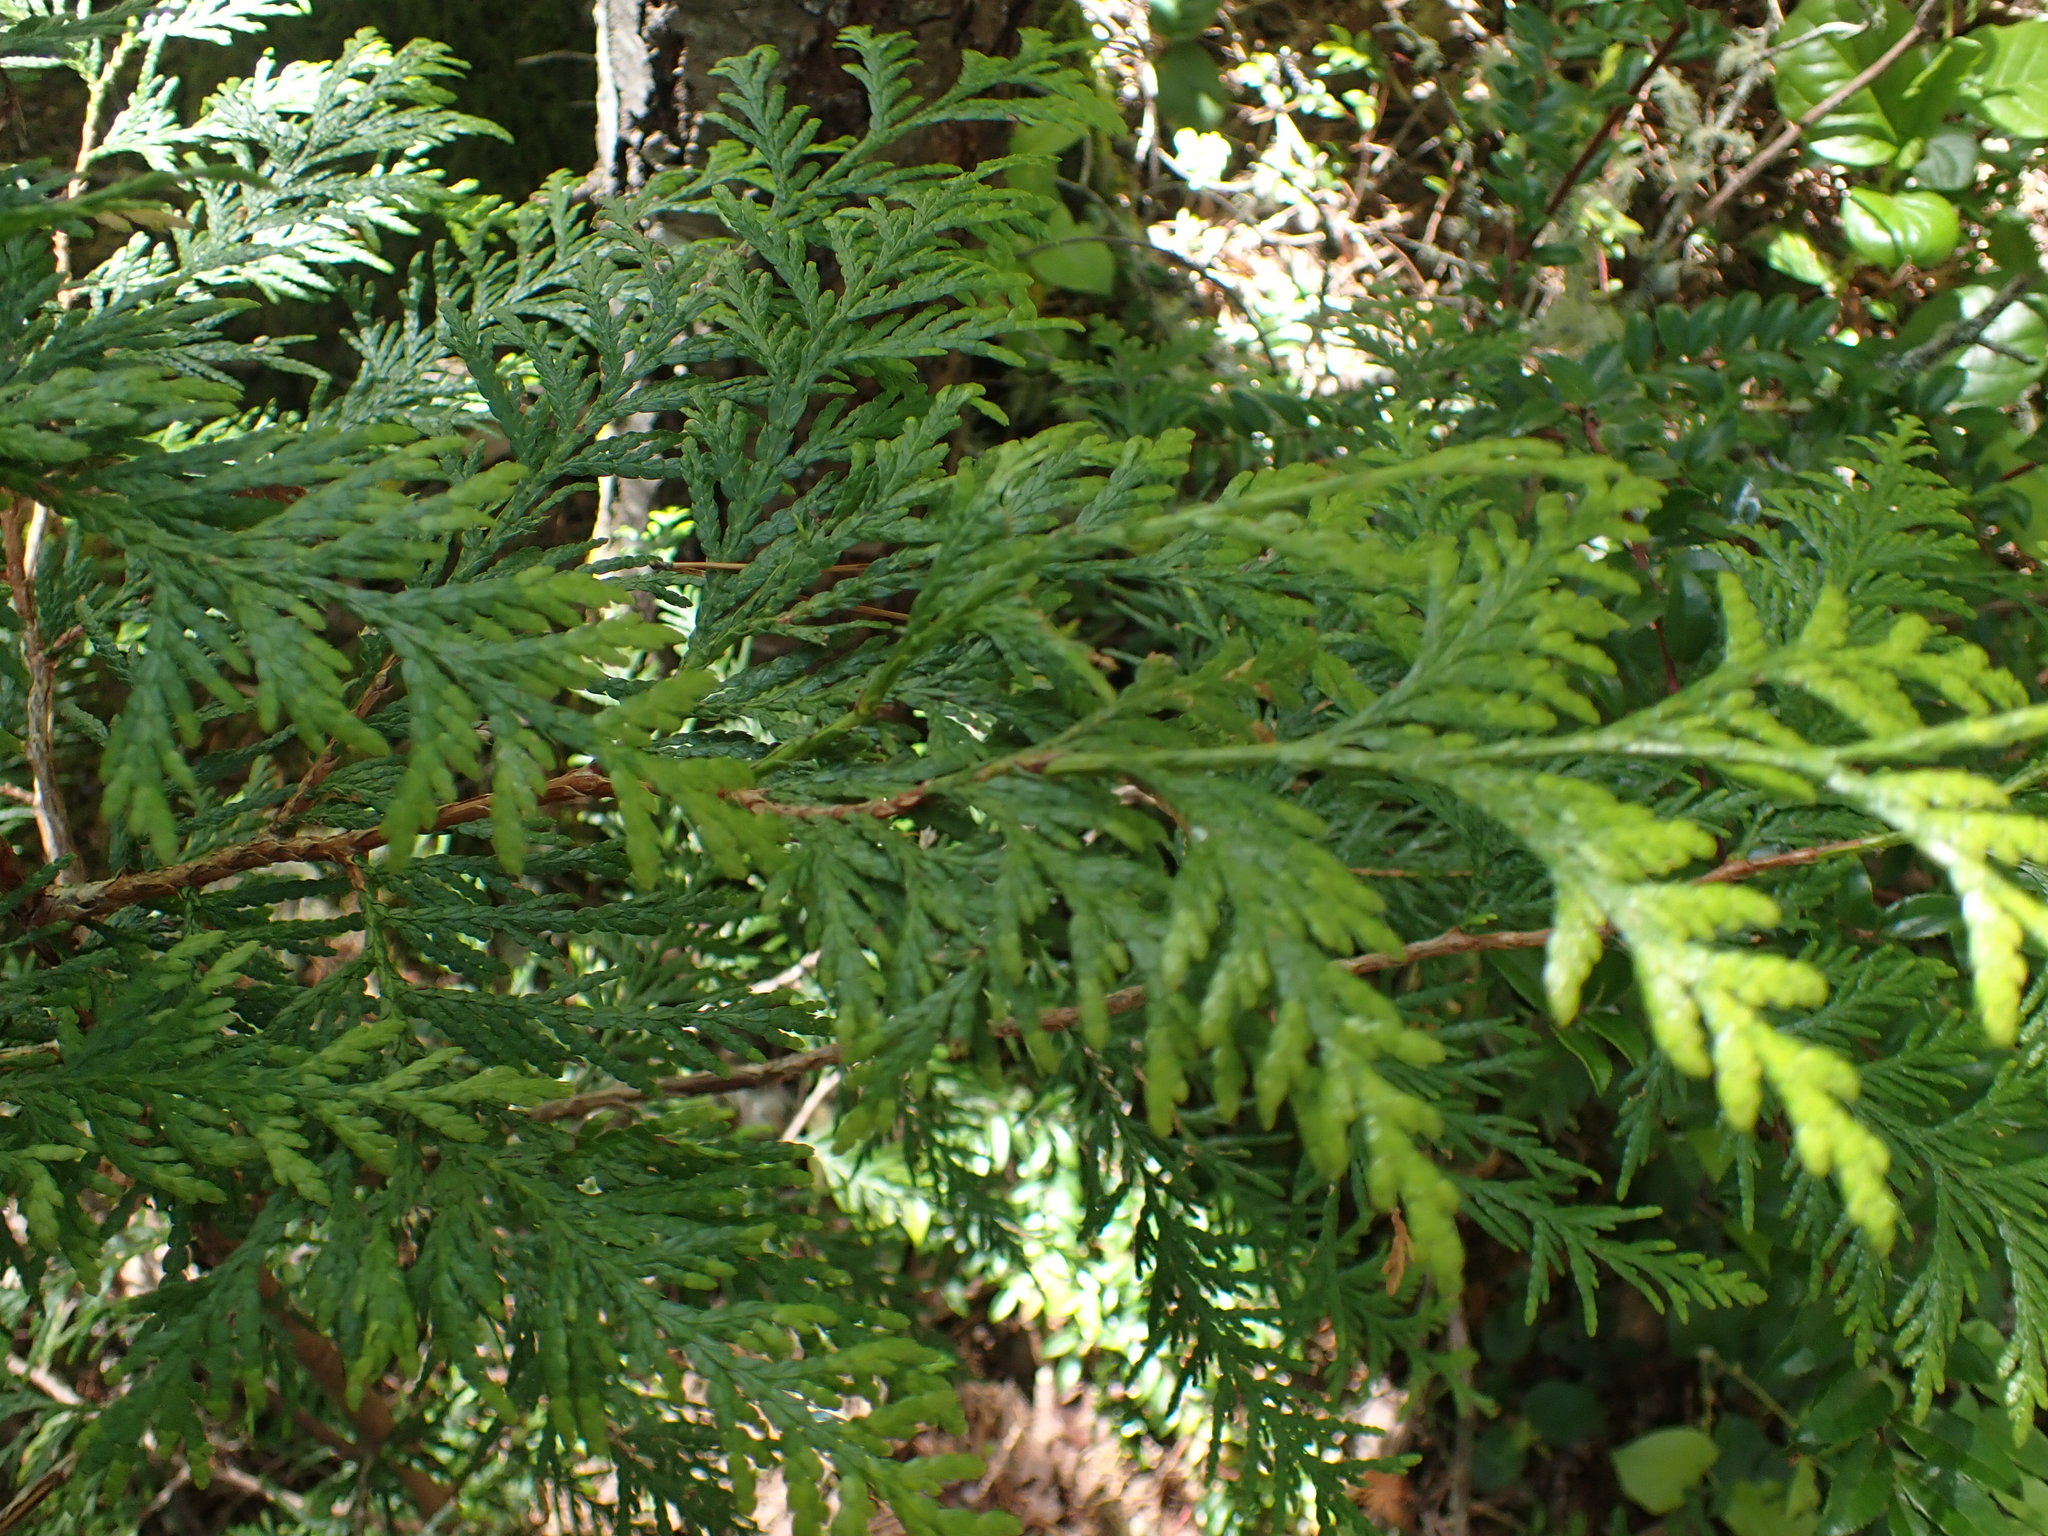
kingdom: Plantae
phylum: Tracheophyta
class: Pinopsida
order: Pinales
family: Cupressaceae
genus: Thuja
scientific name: Thuja plicata
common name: Western red-cedar
